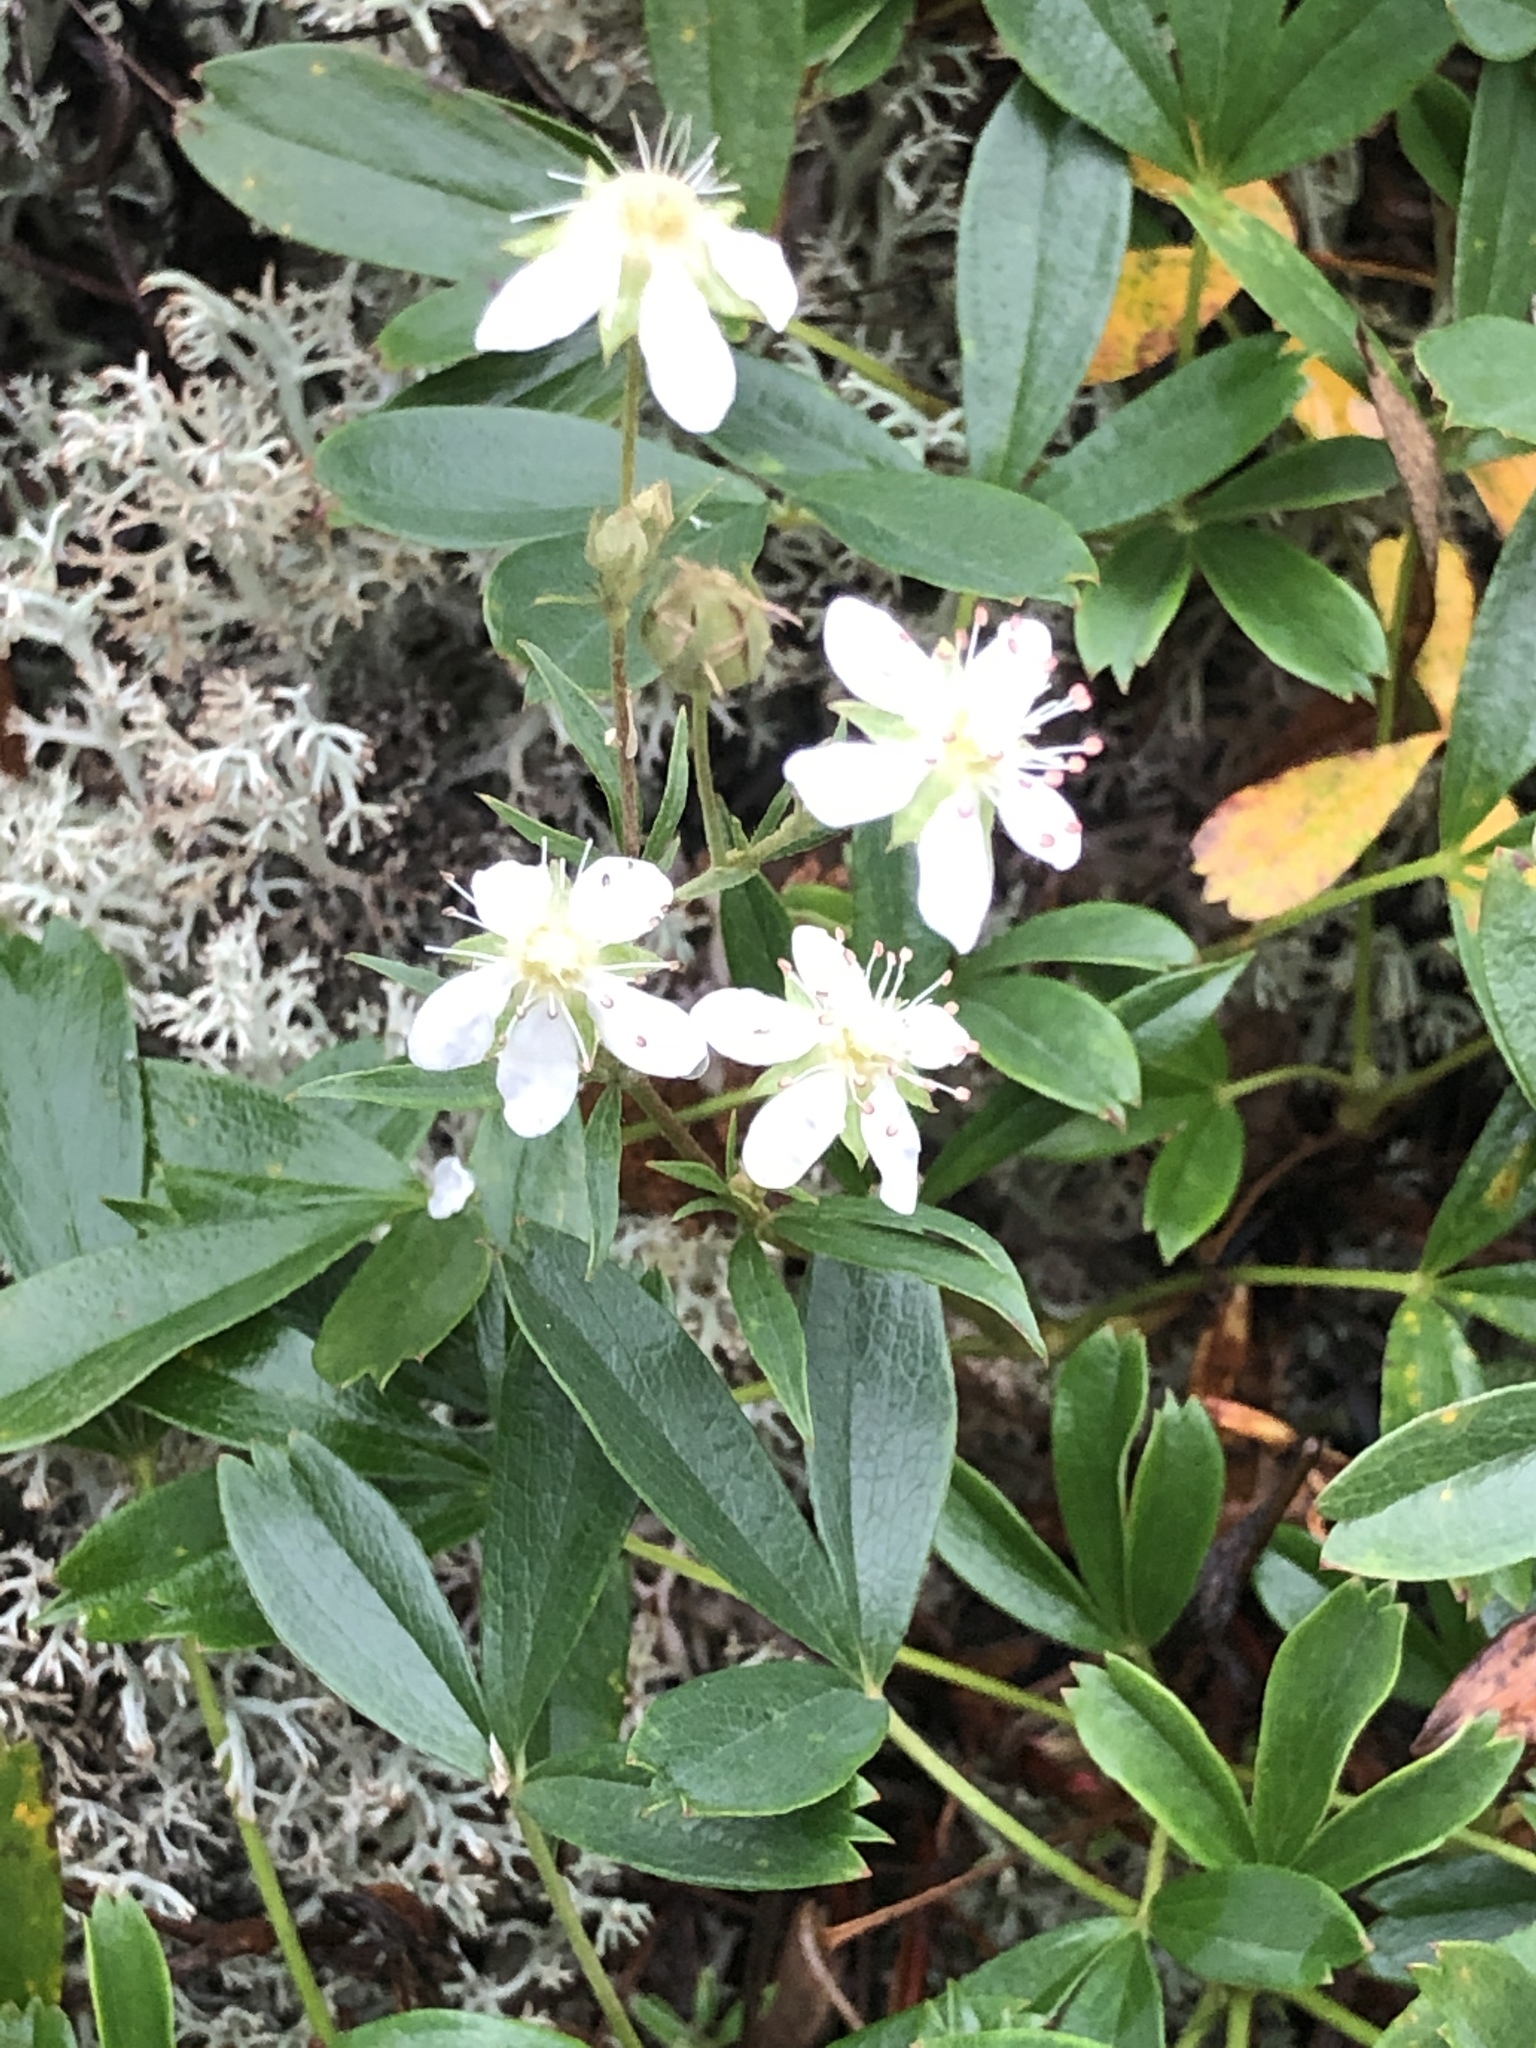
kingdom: Plantae
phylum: Tracheophyta
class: Magnoliopsida
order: Rosales
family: Rosaceae
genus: Sibbaldia
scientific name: Sibbaldia tridentata
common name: Three-toothed cinquefoil
